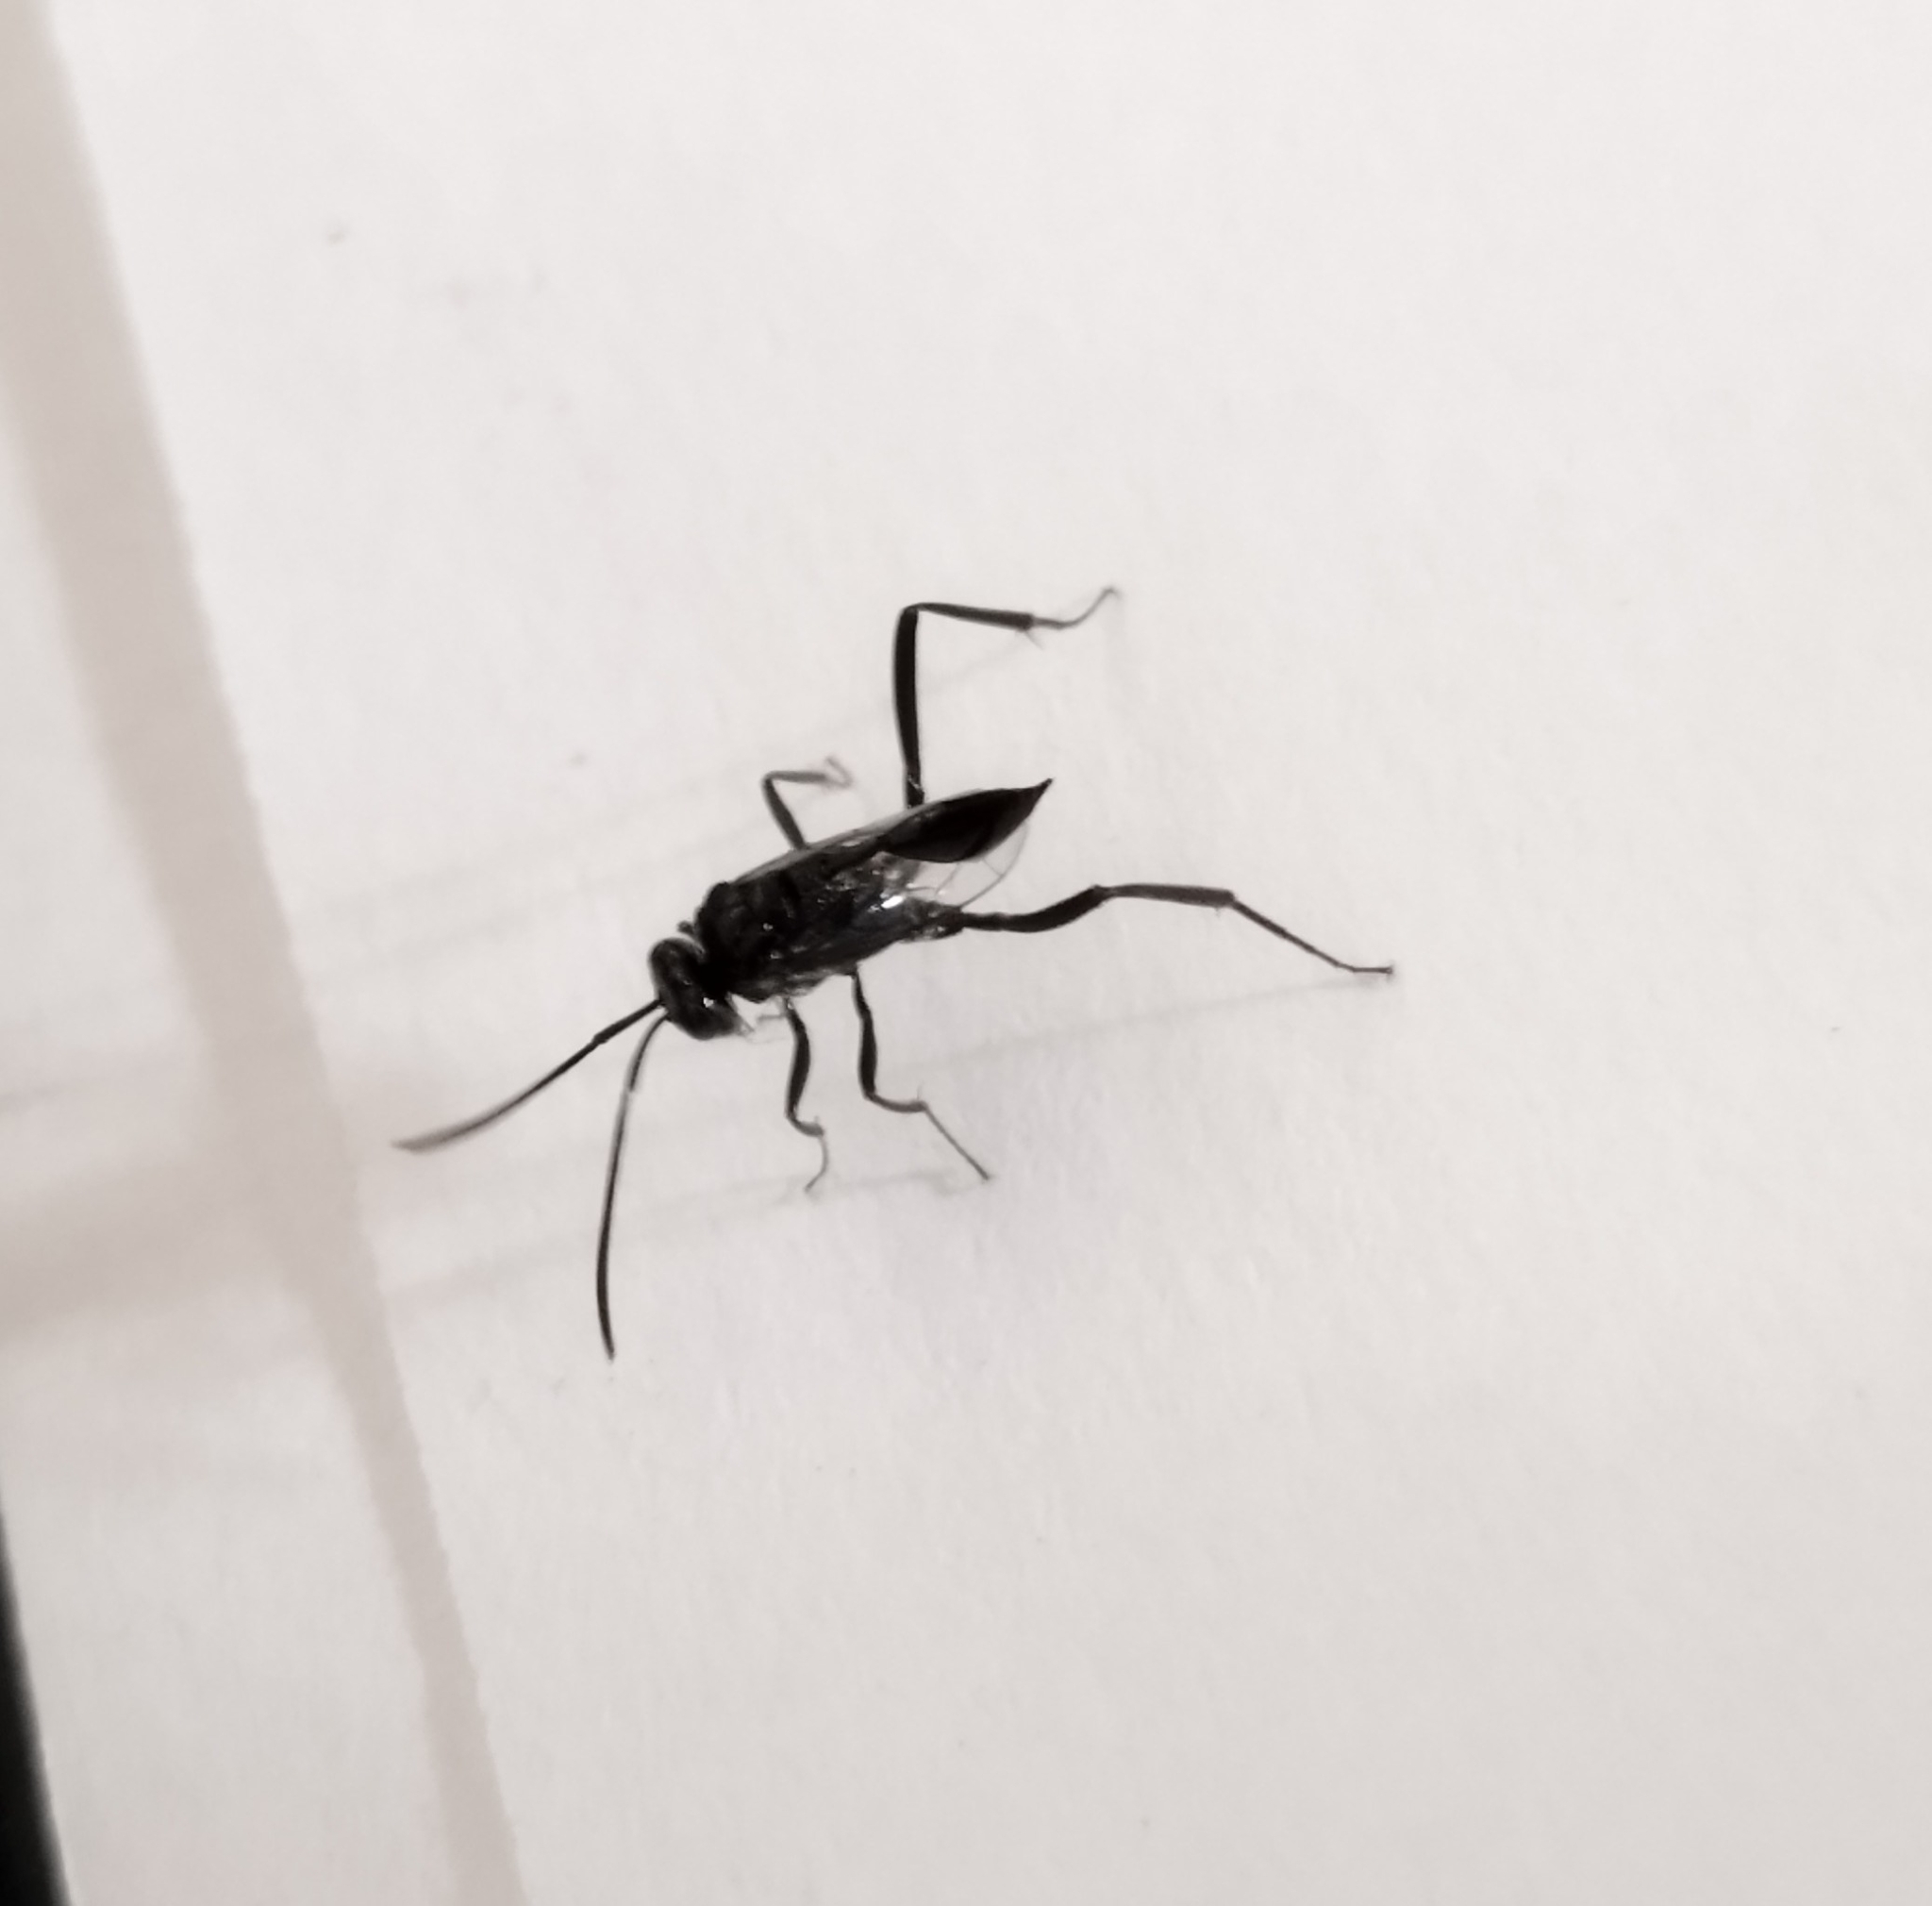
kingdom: Animalia
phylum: Arthropoda
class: Insecta
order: Hymenoptera
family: Evaniidae
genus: Evania
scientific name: Evania appendigaster
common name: Ensign wasp
